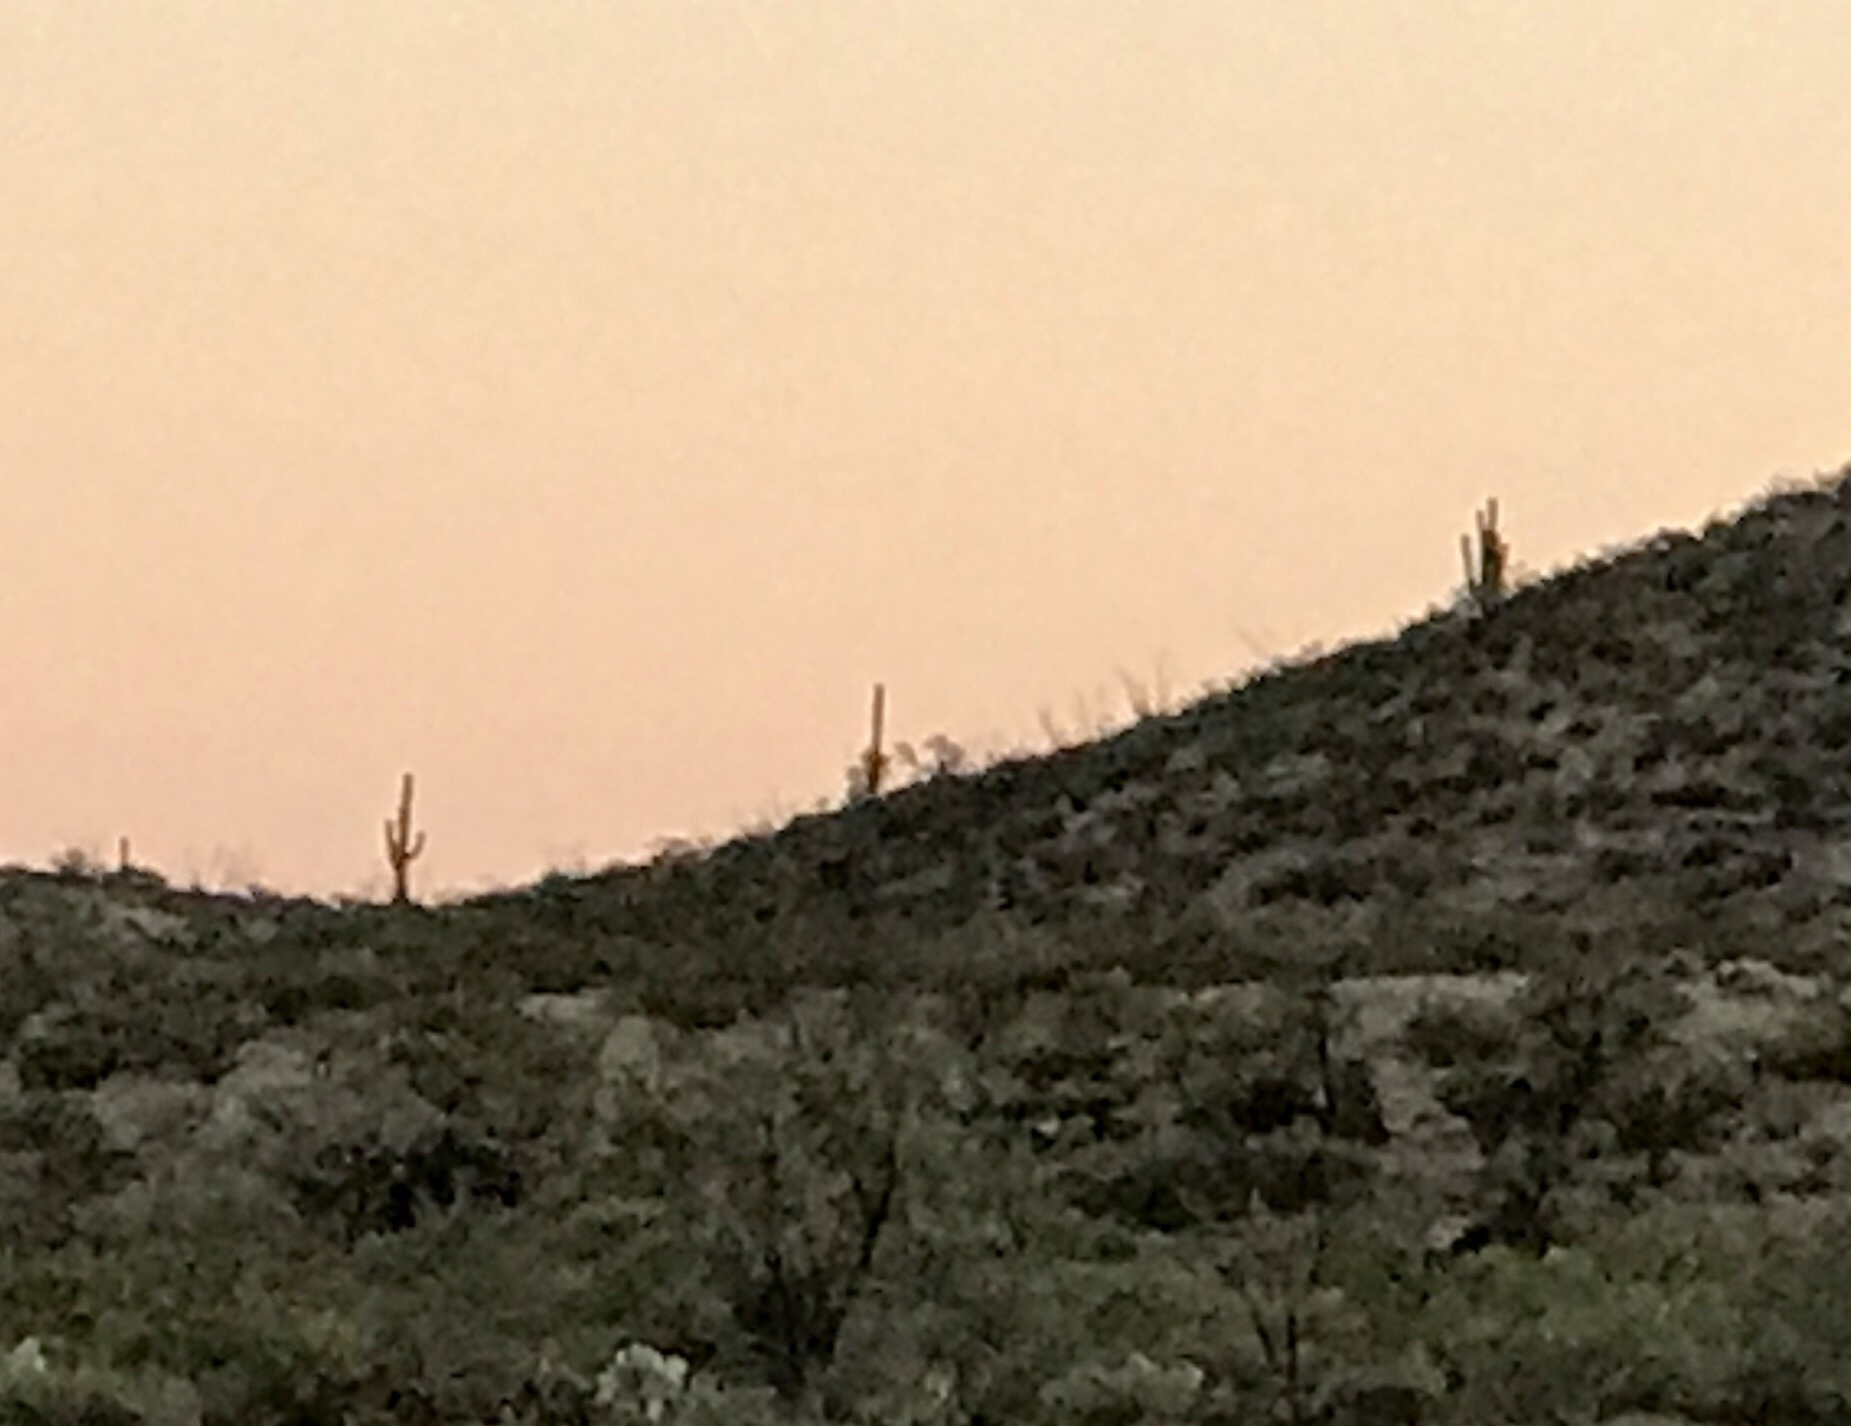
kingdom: Plantae
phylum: Tracheophyta
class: Magnoliopsida
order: Caryophyllales
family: Cactaceae
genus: Carnegiea
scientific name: Carnegiea gigantea
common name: Saguaro
